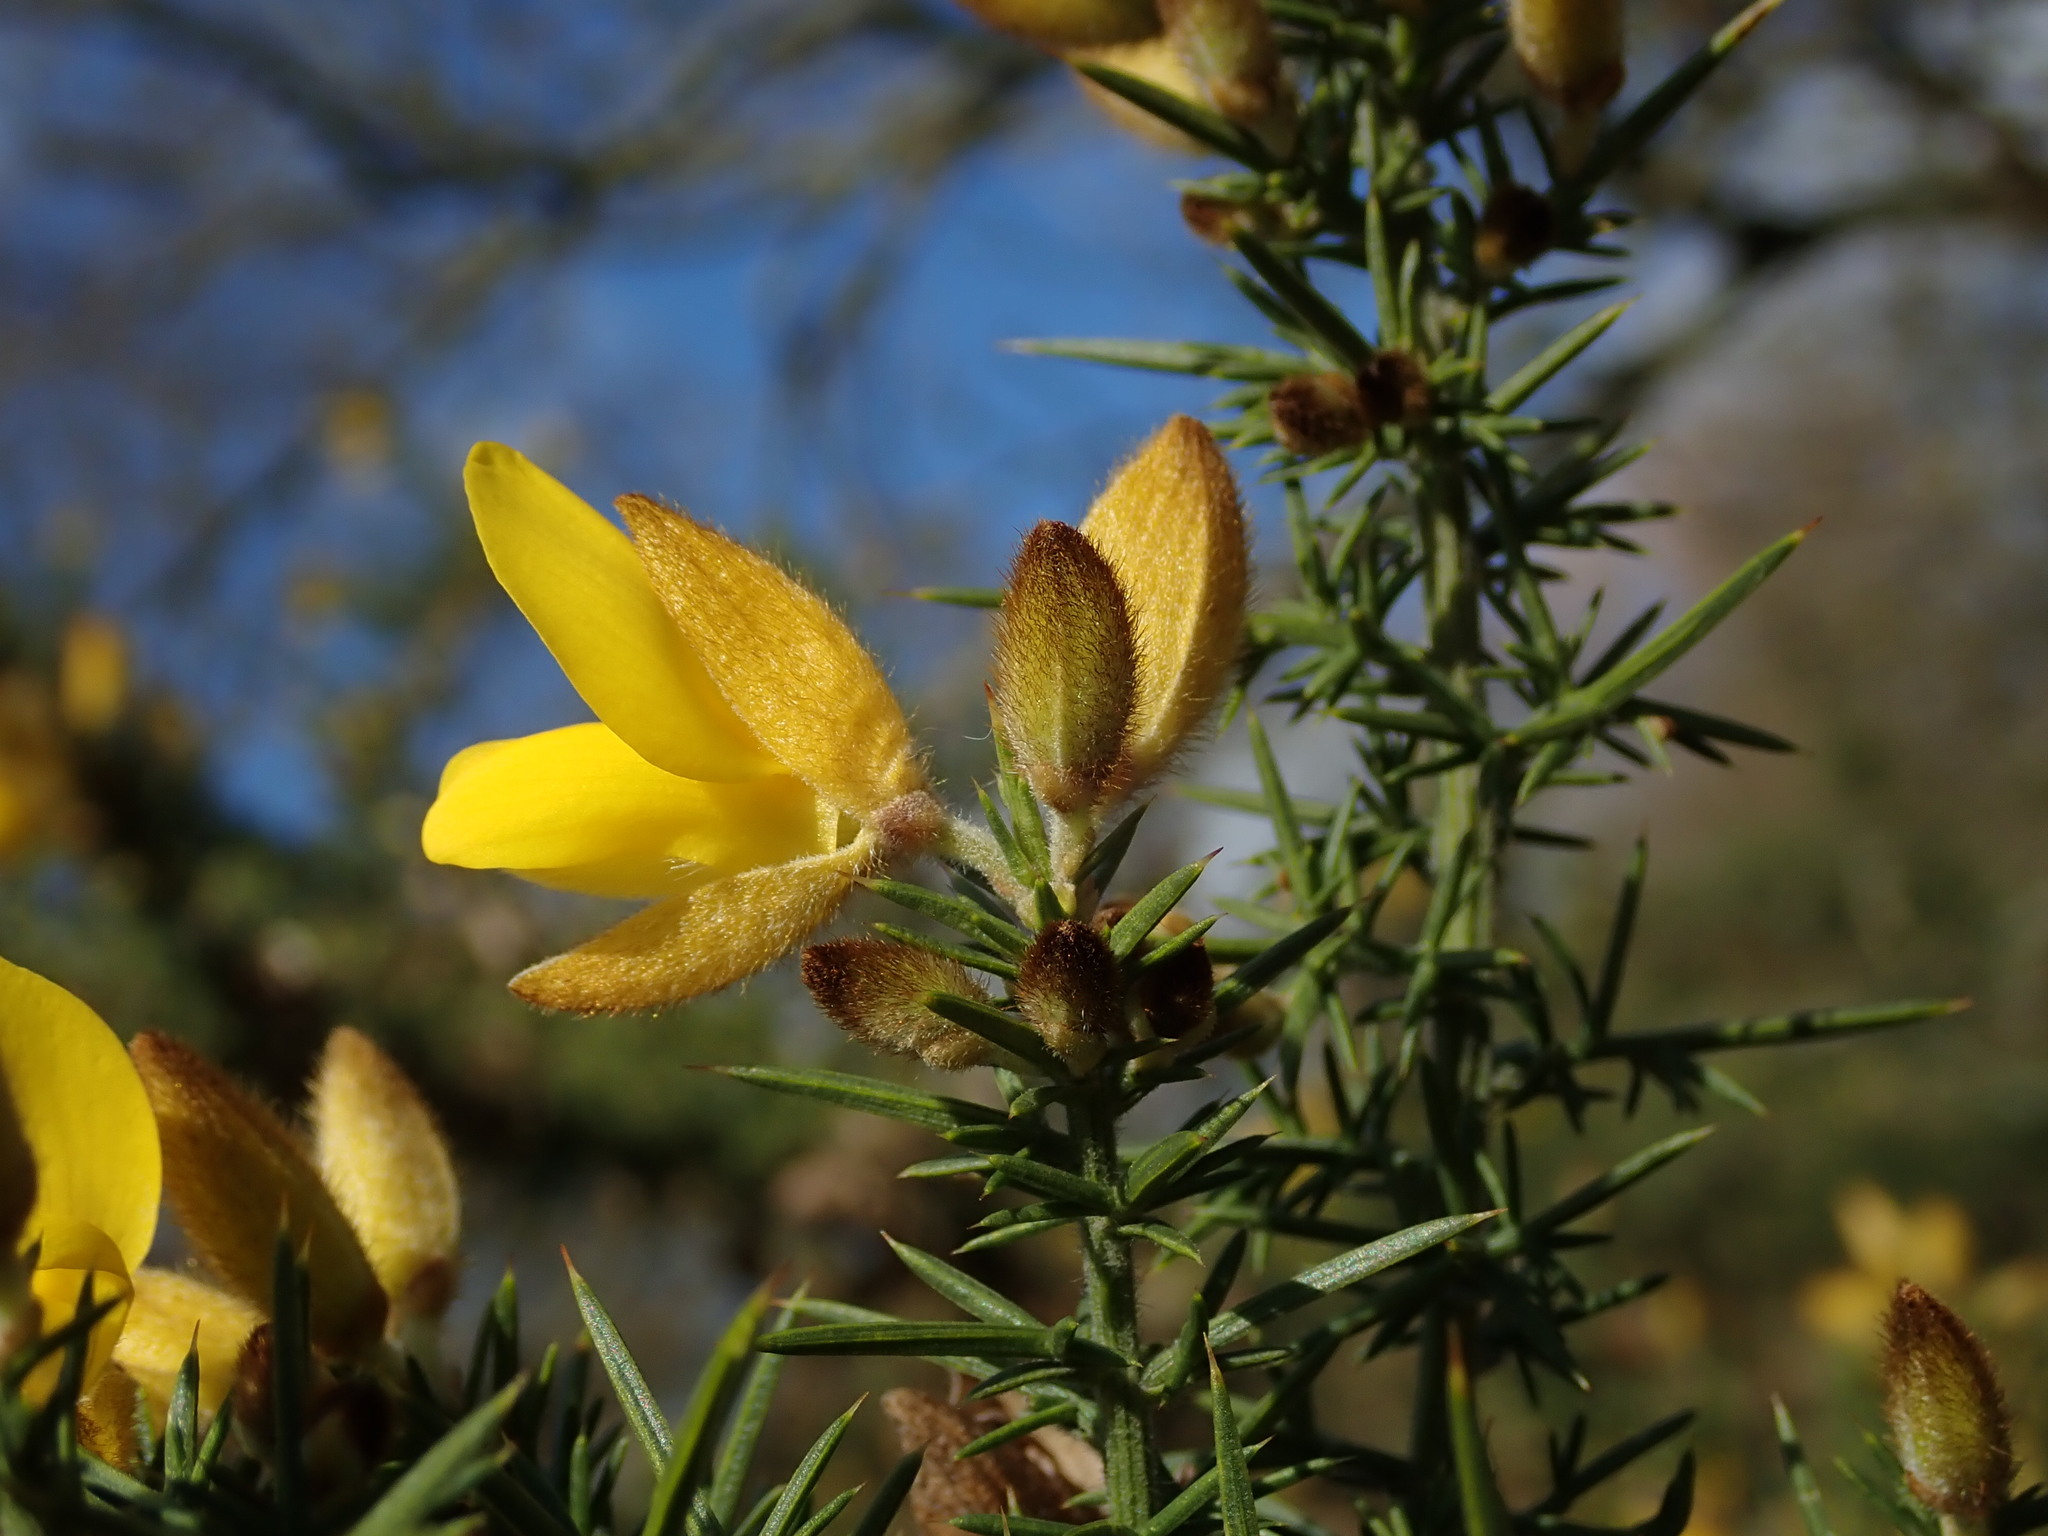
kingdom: Plantae
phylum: Tracheophyta
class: Magnoliopsida
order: Fabales
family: Fabaceae
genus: Ulex
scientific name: Ulex europaeus
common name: Common gorse
